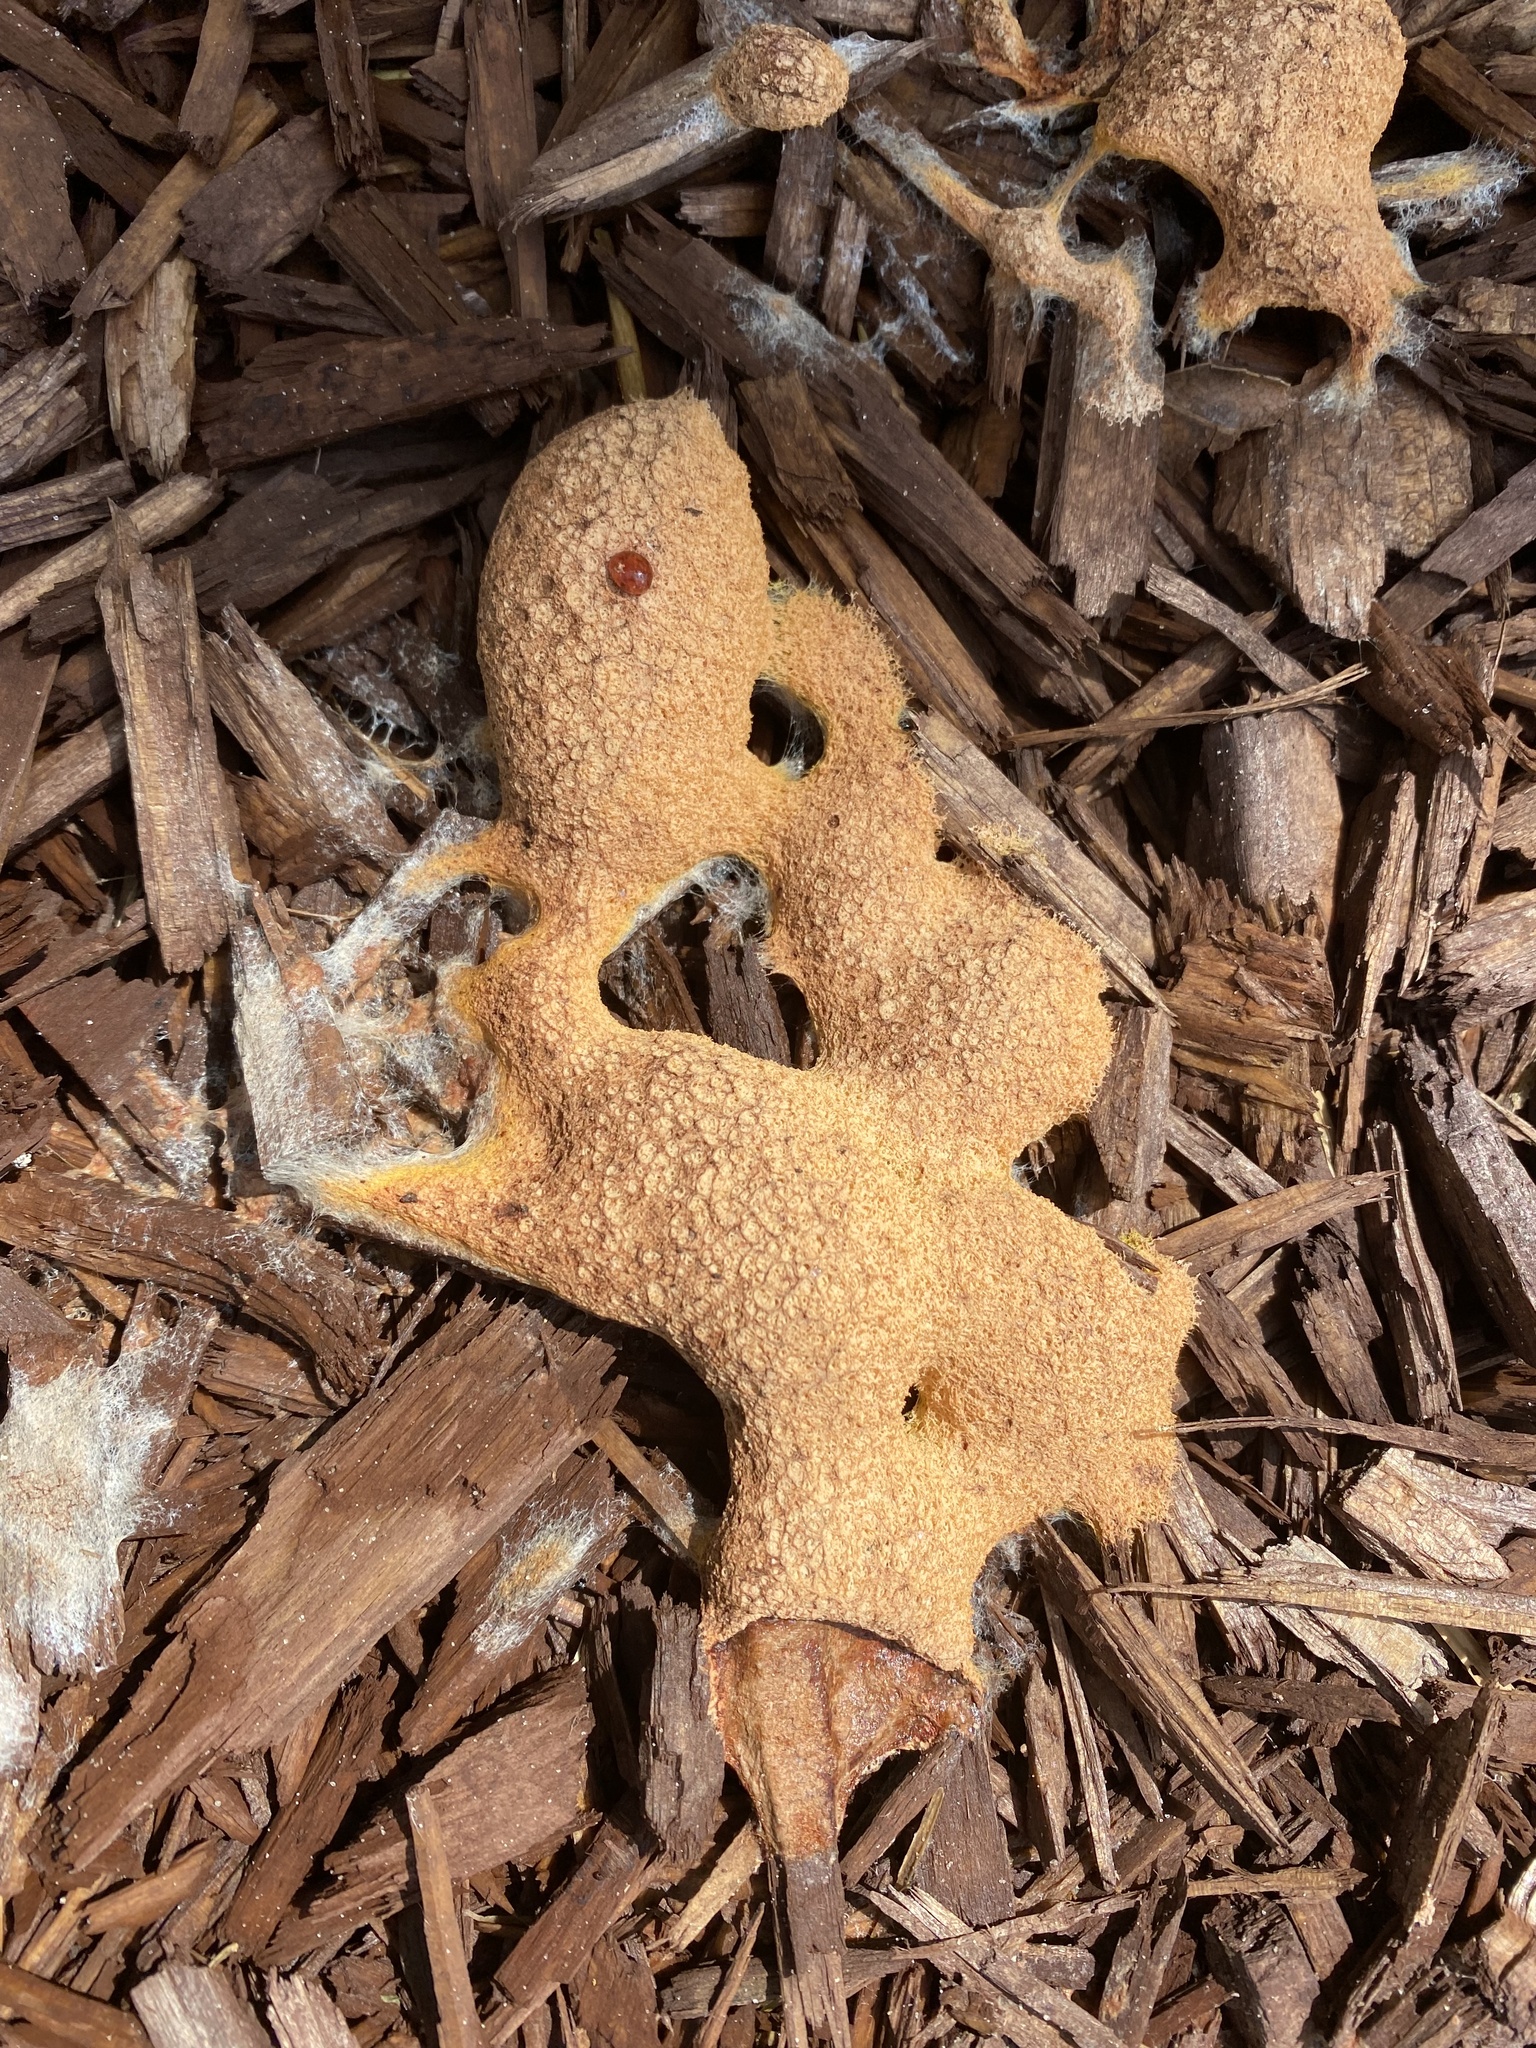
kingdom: Protozoa
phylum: Mycetozoa
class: Myxomycetes
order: Physarales
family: Physaraceae
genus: Fuligo
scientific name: Fuligo septica
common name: Dog vomit slime mold
